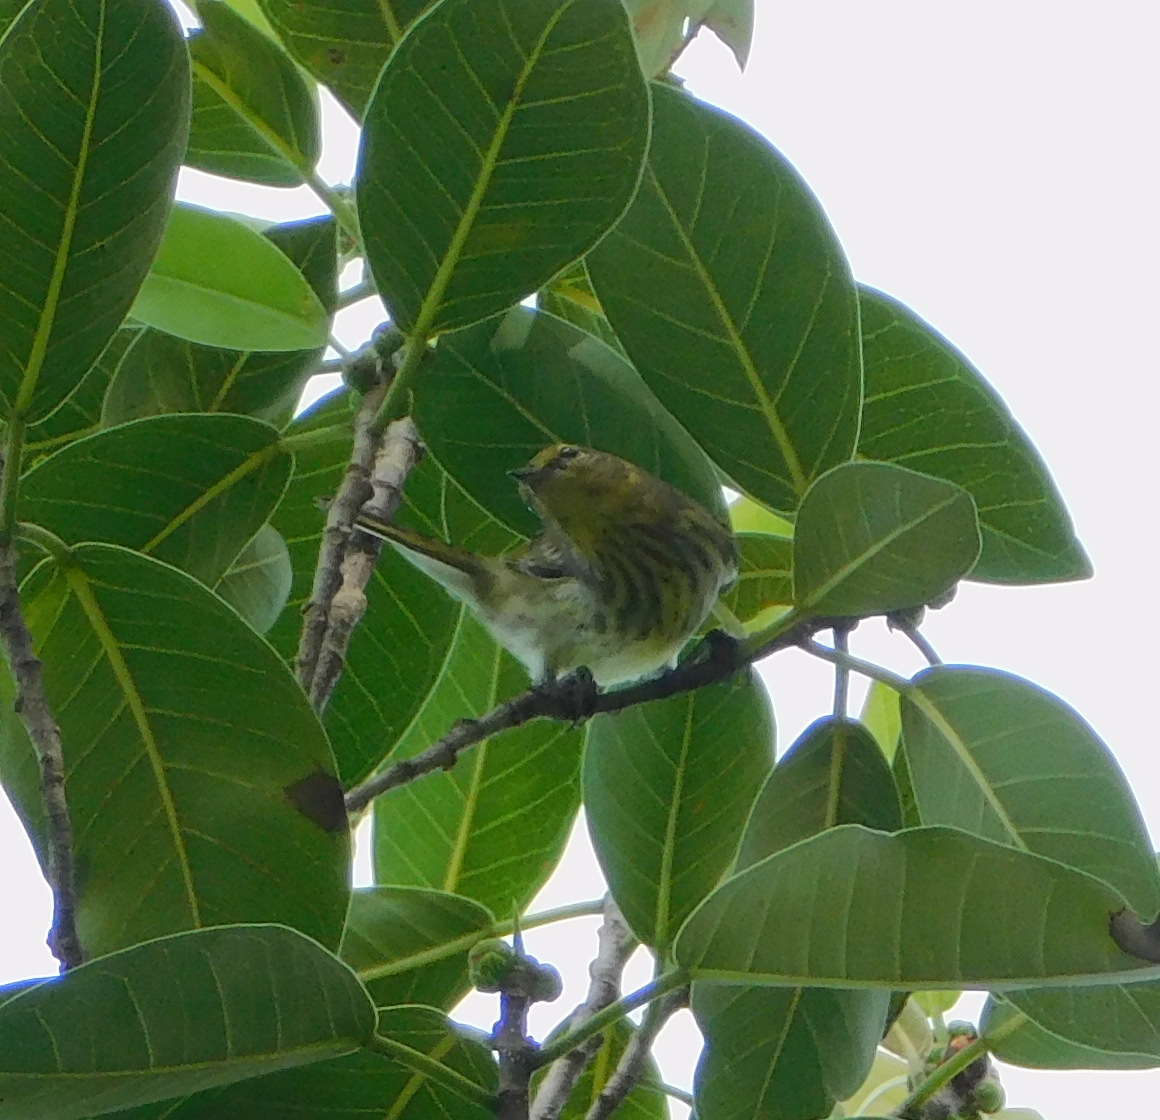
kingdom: Animalia
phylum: Chordata
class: Aves
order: Passeriformes
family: Parulidae
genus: Setophaga
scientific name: Setophaga tigrina
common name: Cape may warbler
